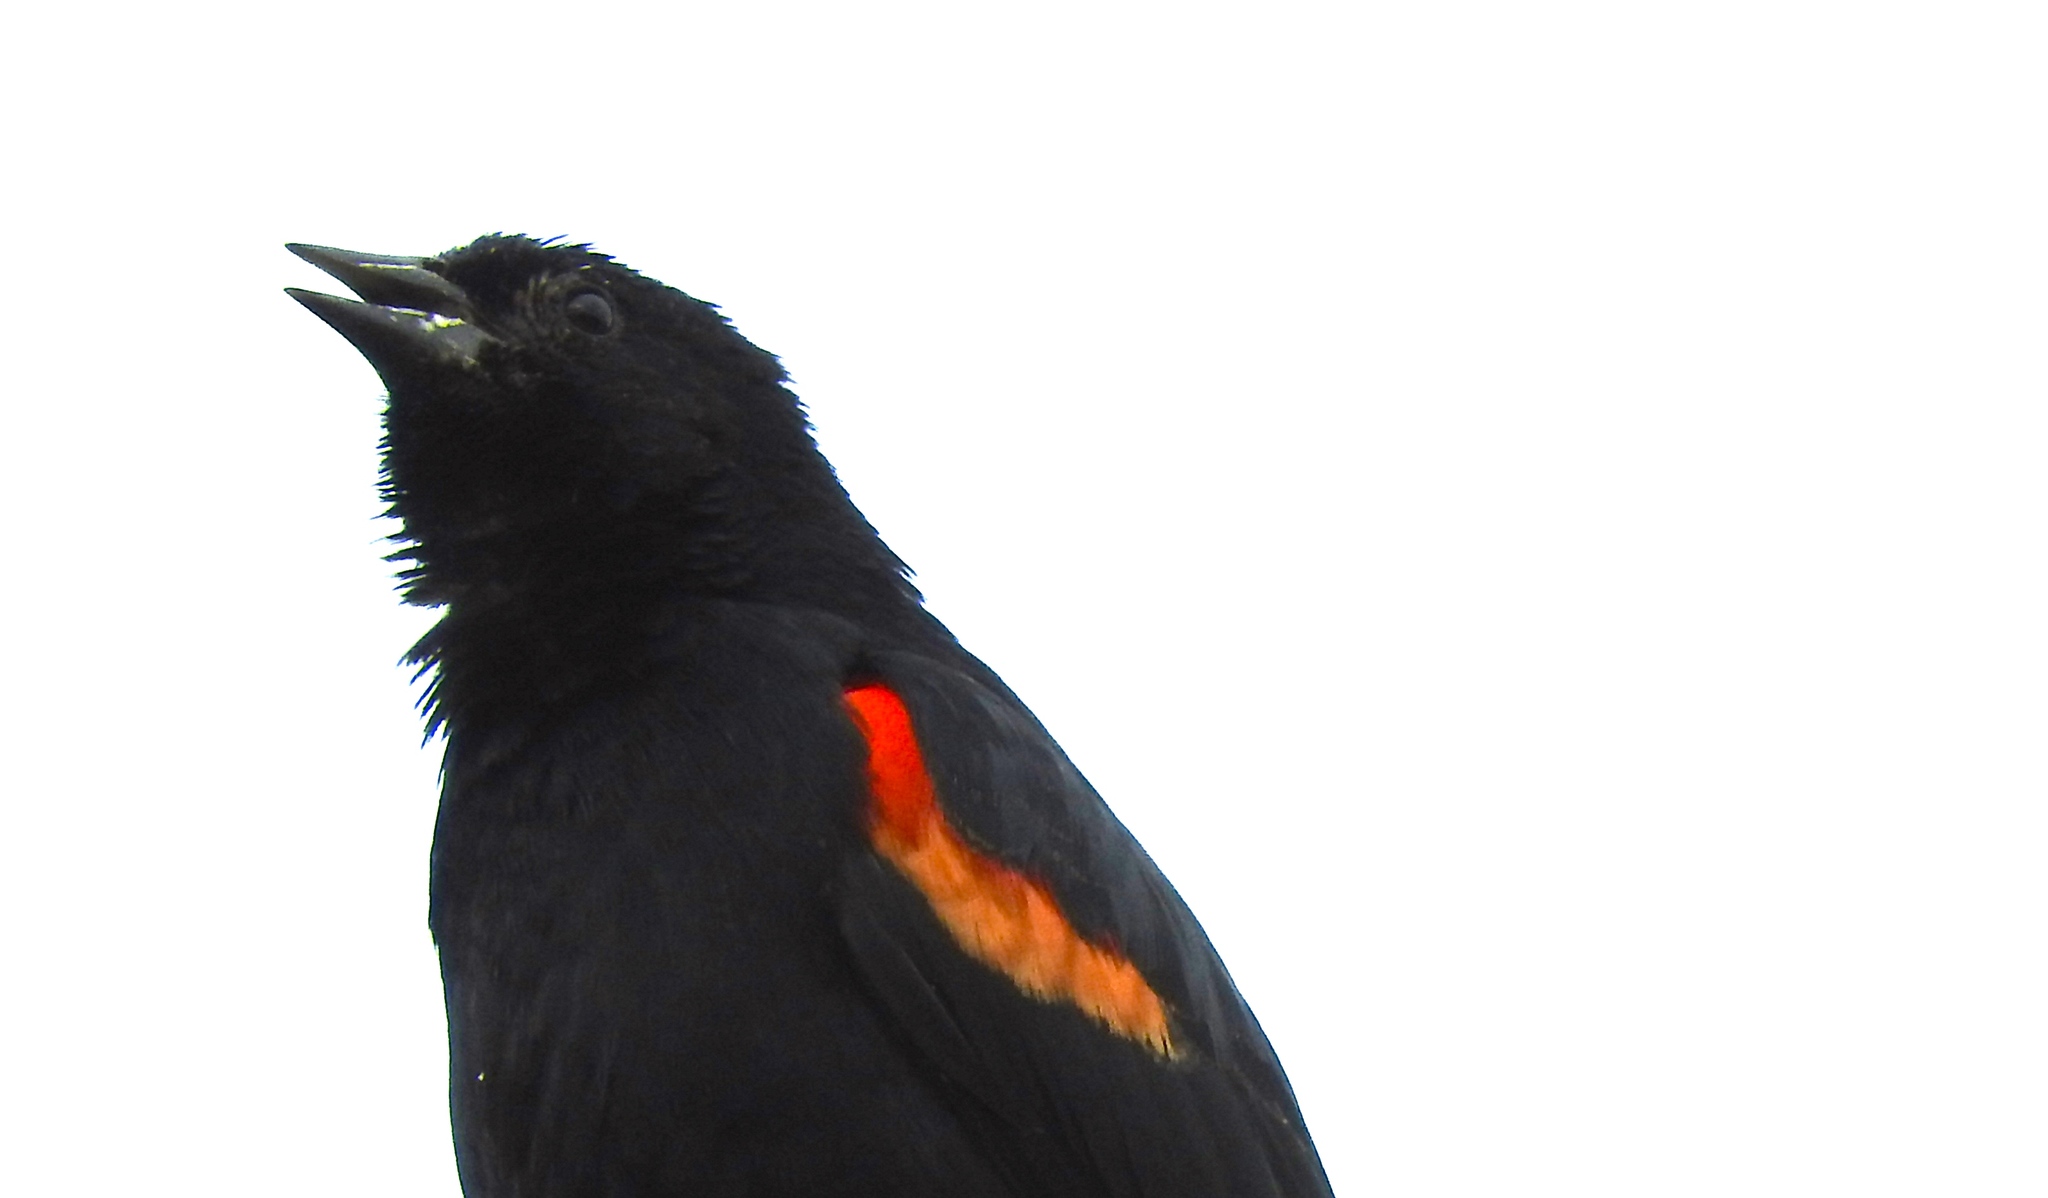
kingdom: Animalia
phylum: Chordata
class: Aves
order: Passeriformes
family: Icteridae
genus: Agelaius
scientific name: Agelaius phoeniceus
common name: Red-winged blackbird
